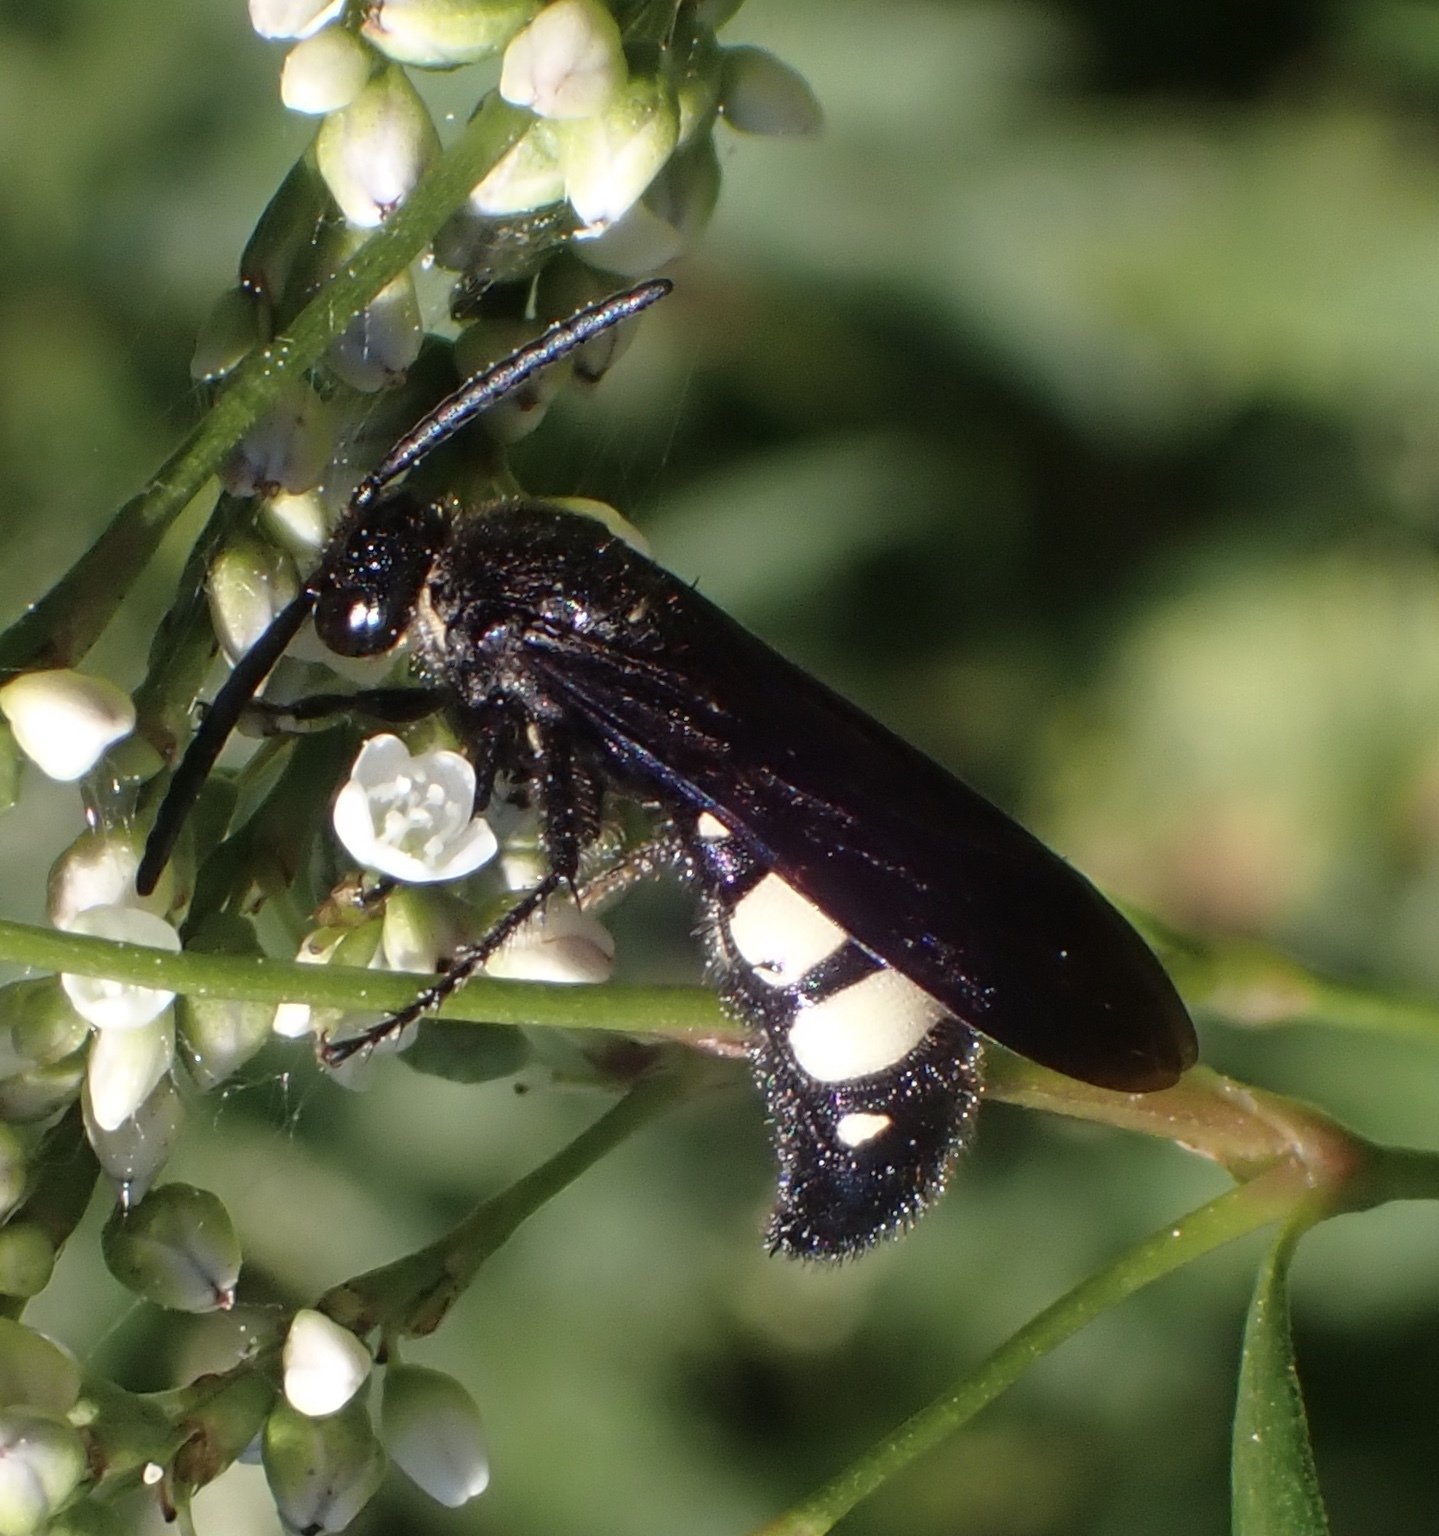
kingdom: Animalia
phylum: Arthropoda
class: Insecta
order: Hymenoptera
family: Scoliidae
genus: Scolia
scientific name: Scolia bicincta
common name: Double-banded scoliid wasp
